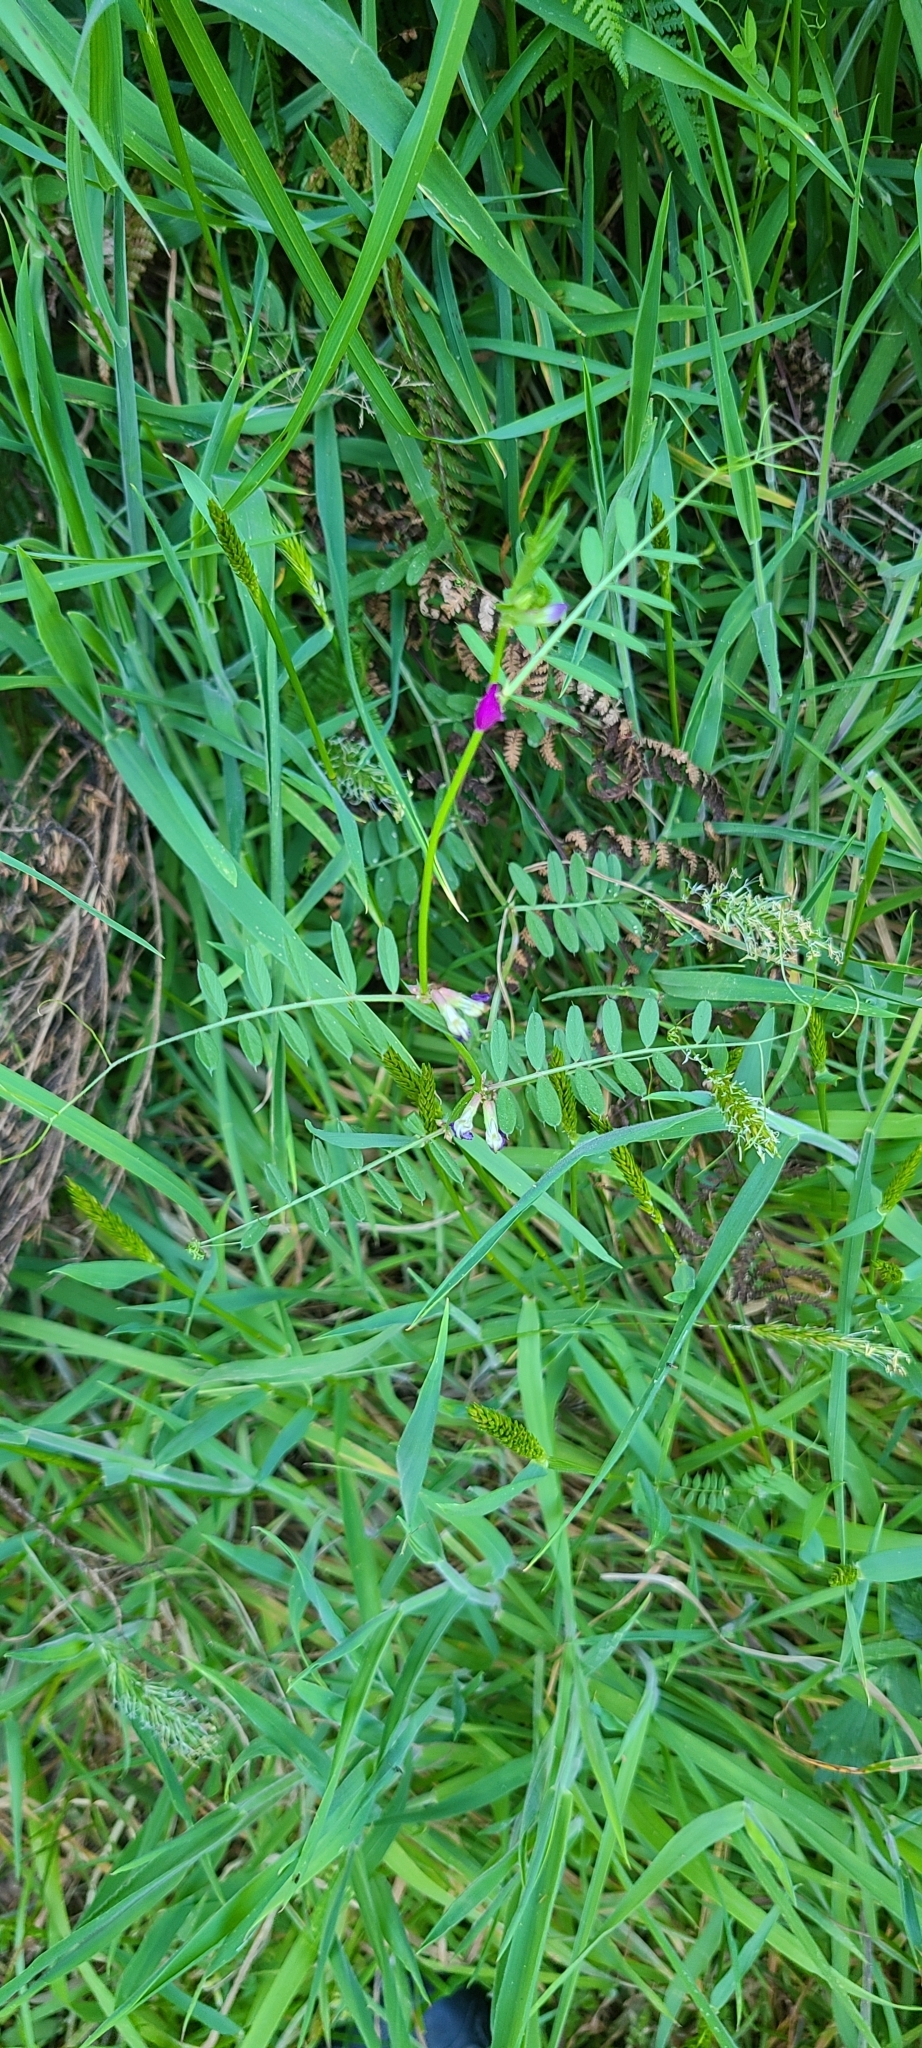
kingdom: Plantae
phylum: Tracheophyta
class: Magnoliopsida
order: Fabales
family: Fabaceae
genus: Vicia
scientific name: Vicia sativa
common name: Garden vetch
